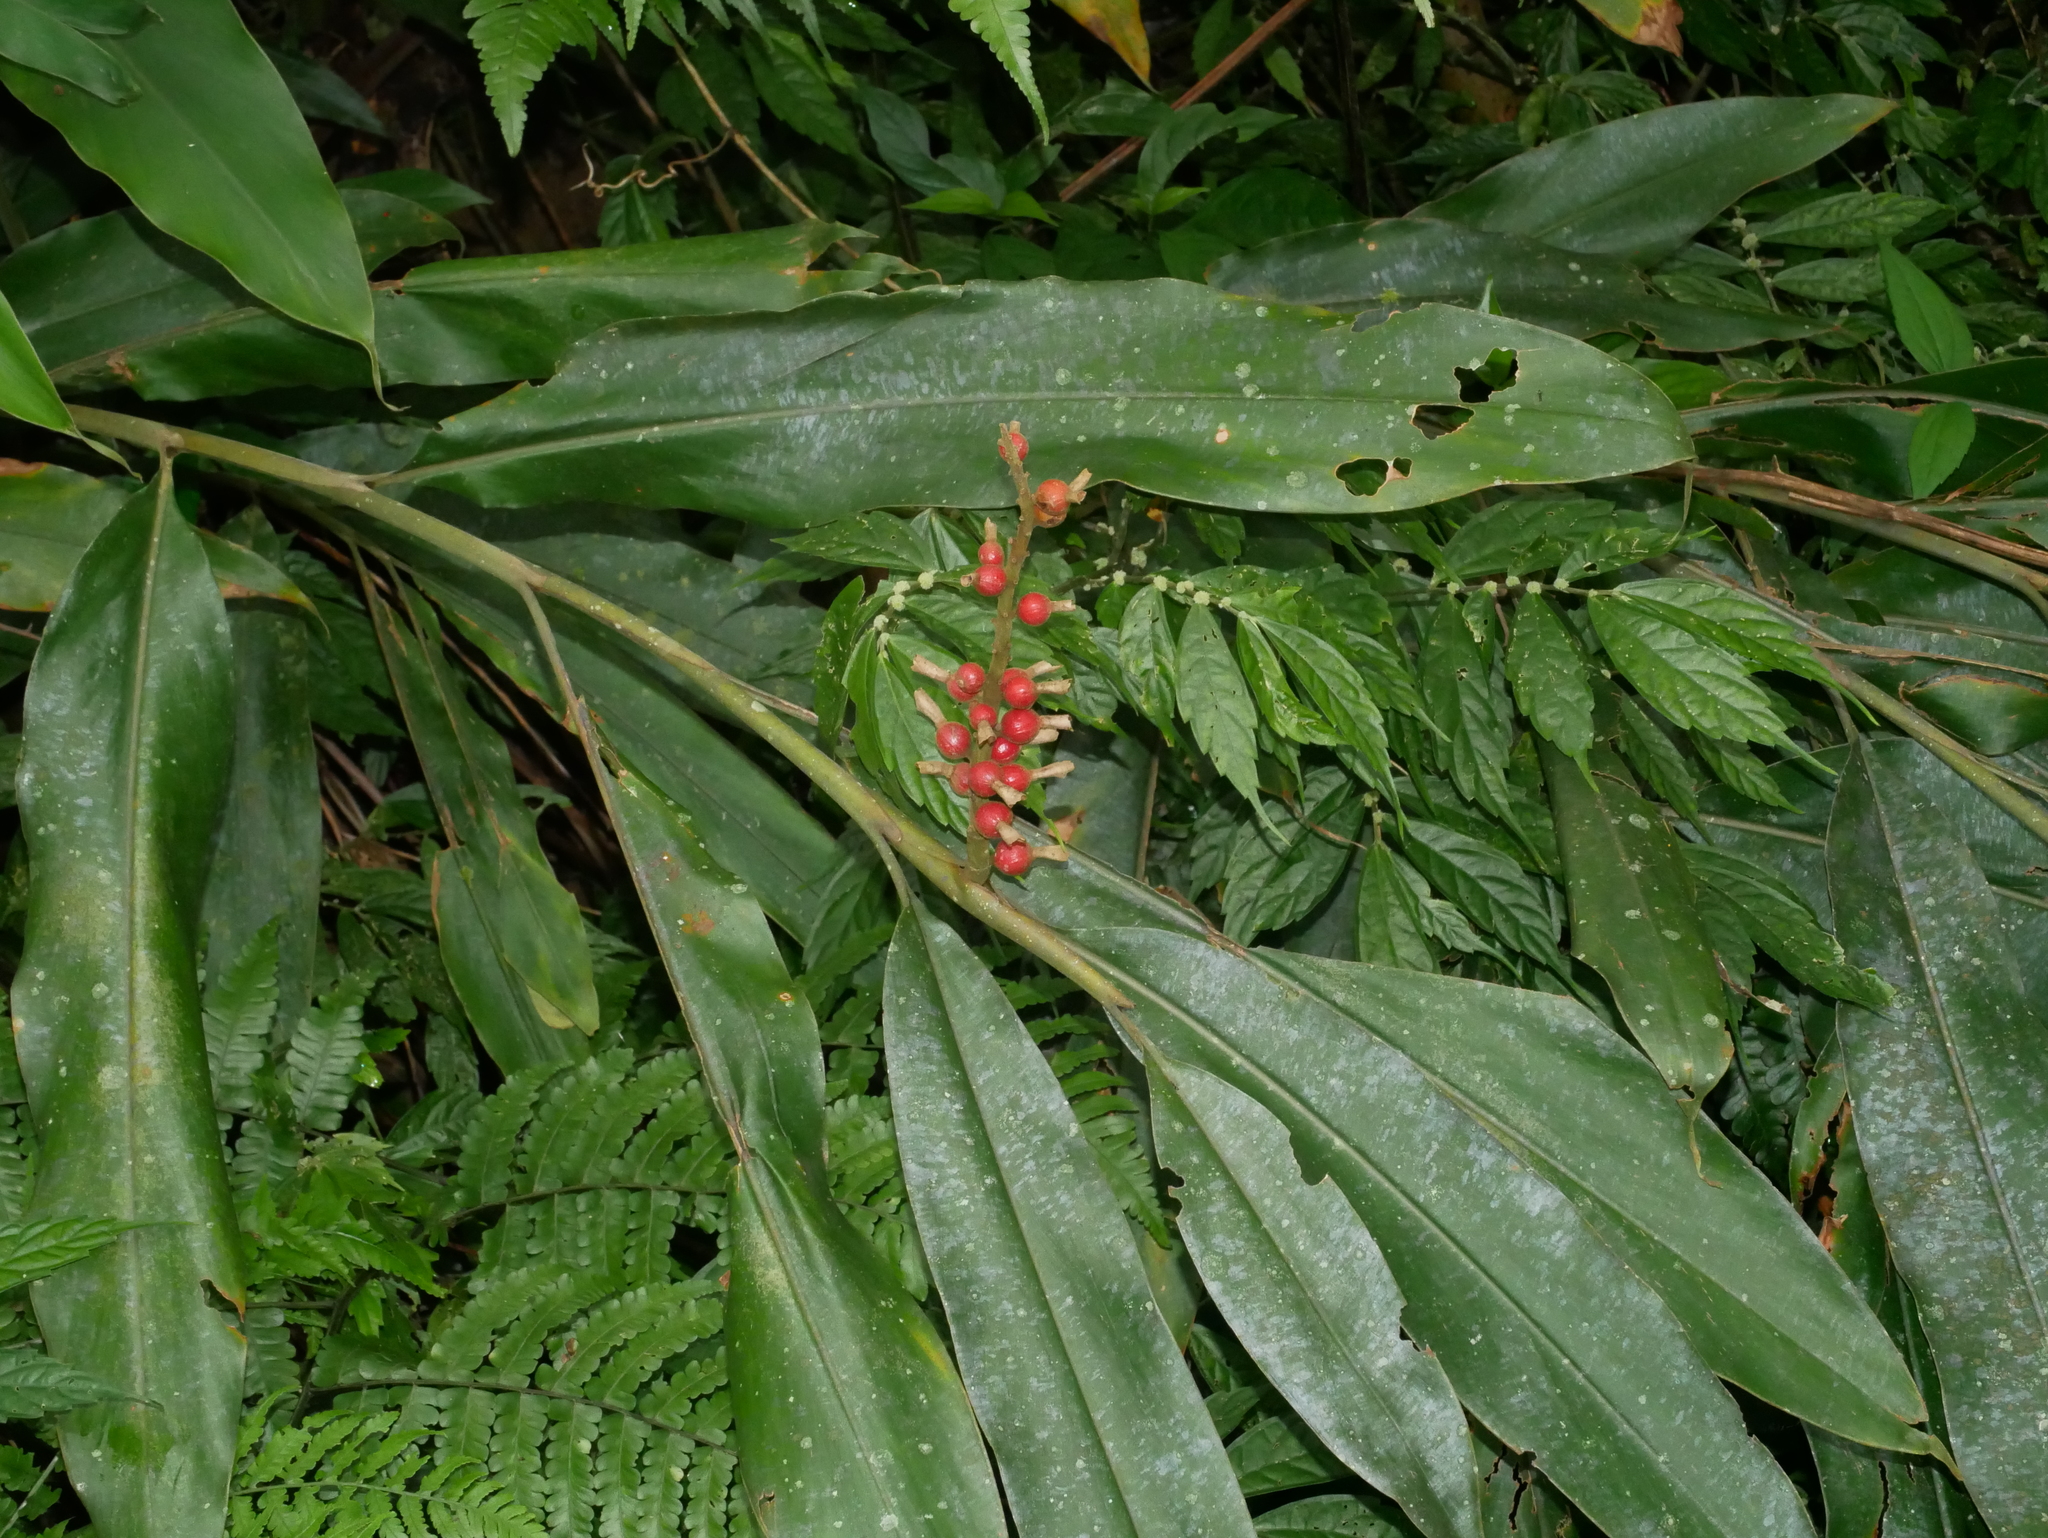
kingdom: Plantae
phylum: Tracheophyta
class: Liliopsida
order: Zingiberales
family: Zingiberaceae
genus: Alpinia
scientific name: Alpinia kawakamii
